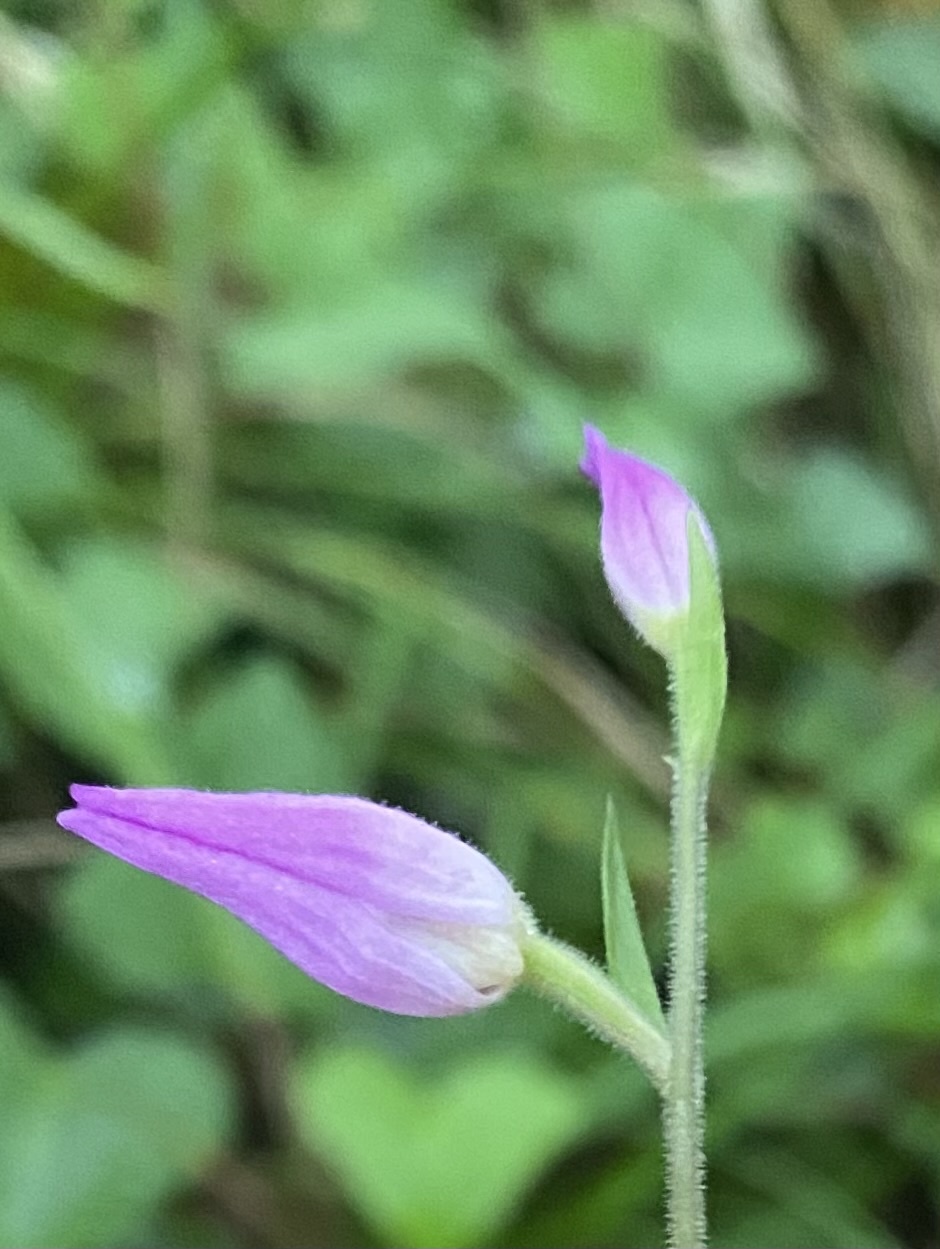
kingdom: Plantae
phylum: Tracheophyta
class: Liliopsida
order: Asparagales
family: Orchidaceae
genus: Cephalanthera
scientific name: Cephalanthera rubra
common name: Red helleborine
